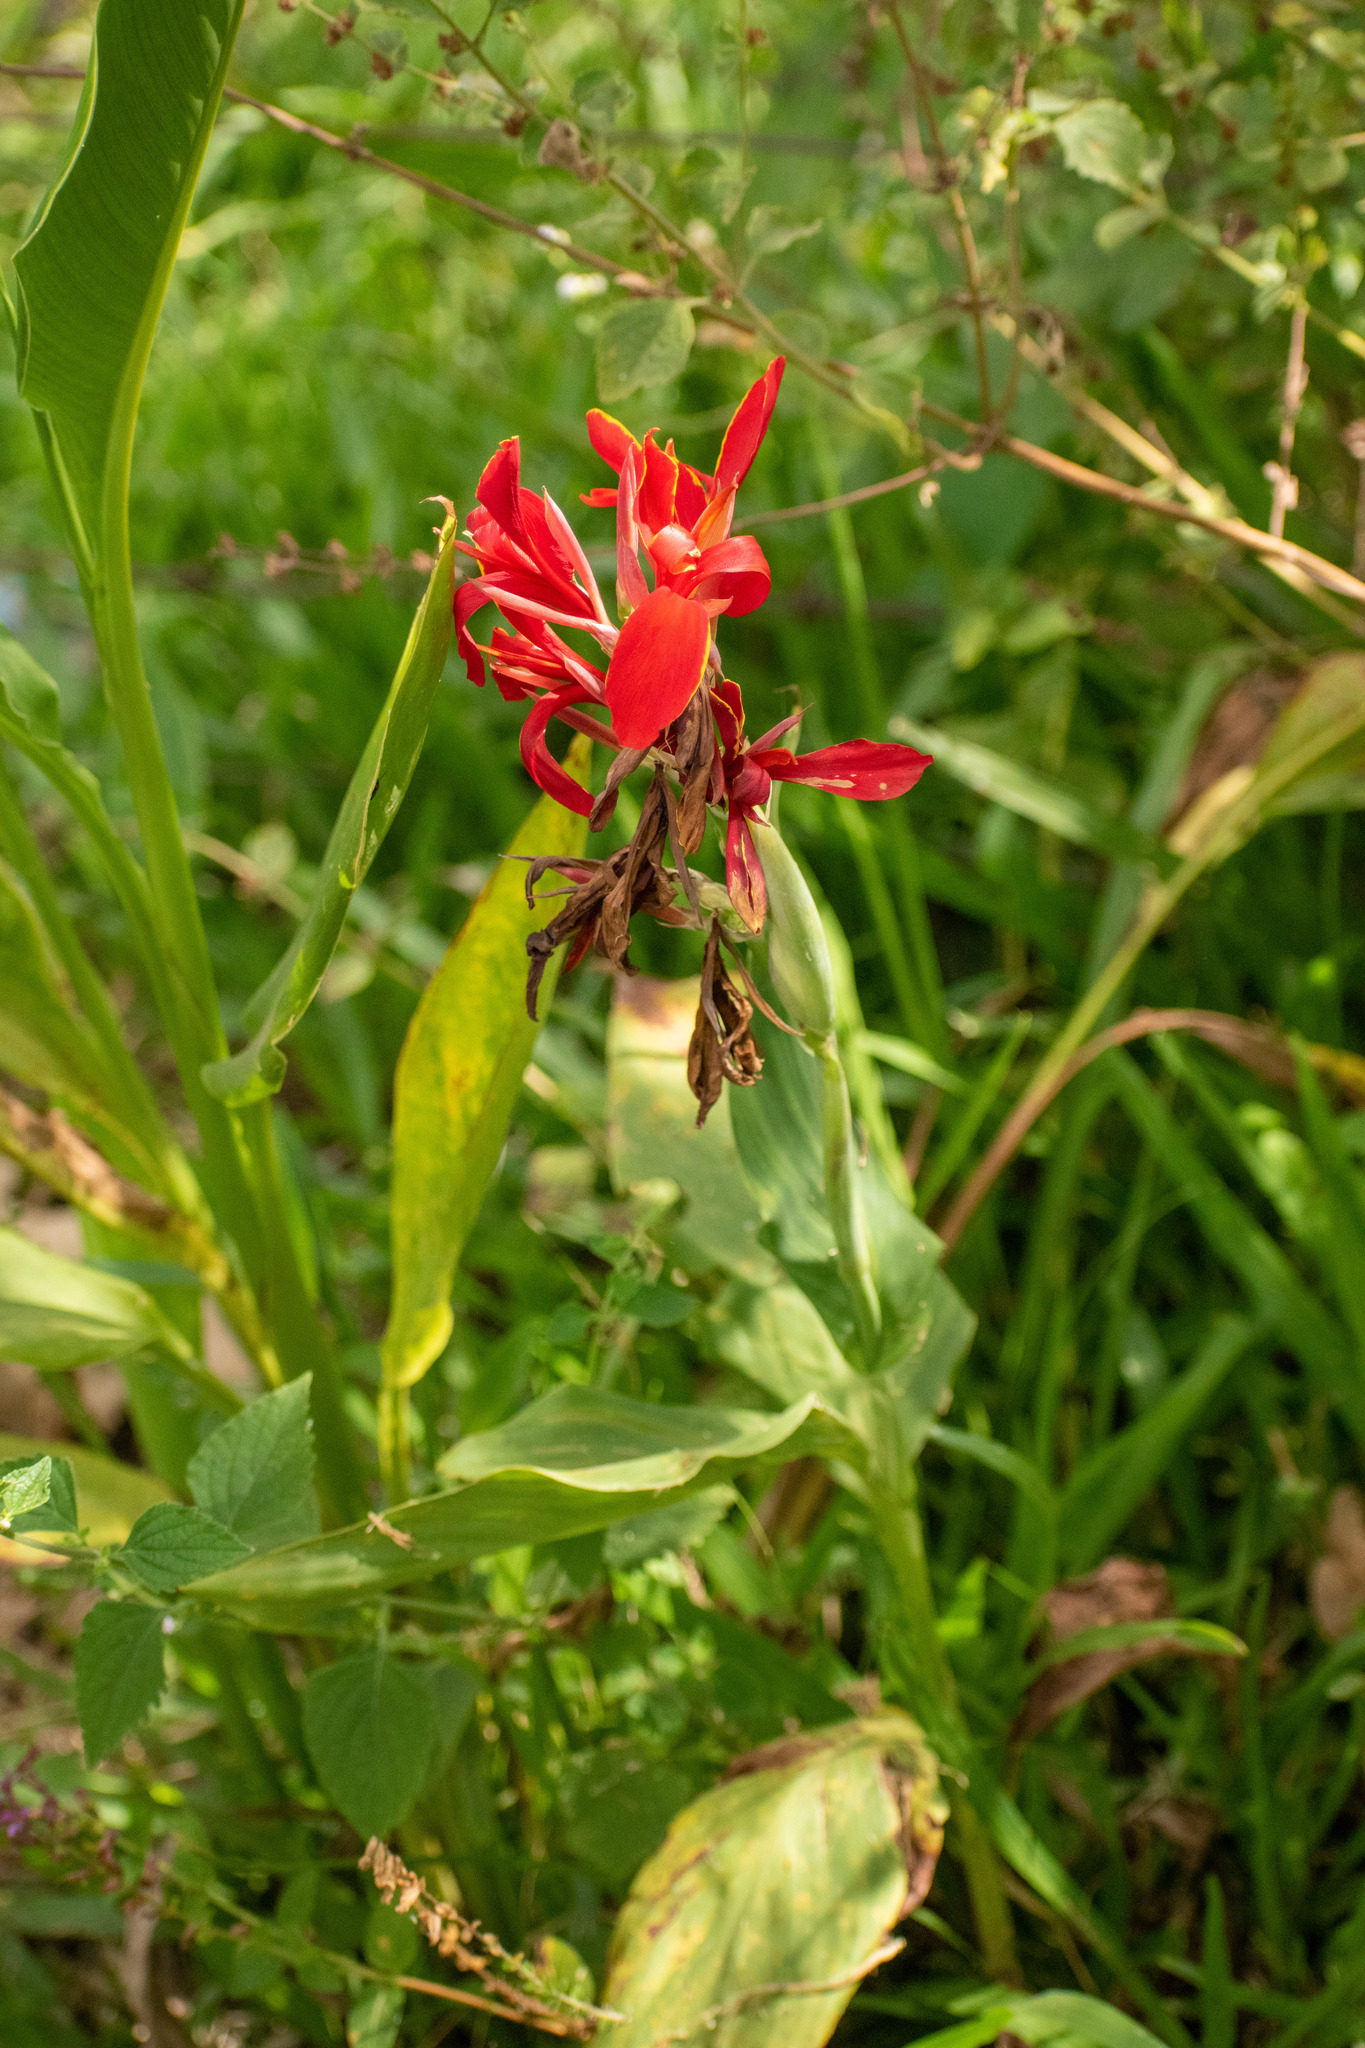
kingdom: Plantae
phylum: Tracheophyta
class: Liliopsida
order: Zingiberales
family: Cannaceae
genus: Canna
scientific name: Canna indica
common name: Indian shot
